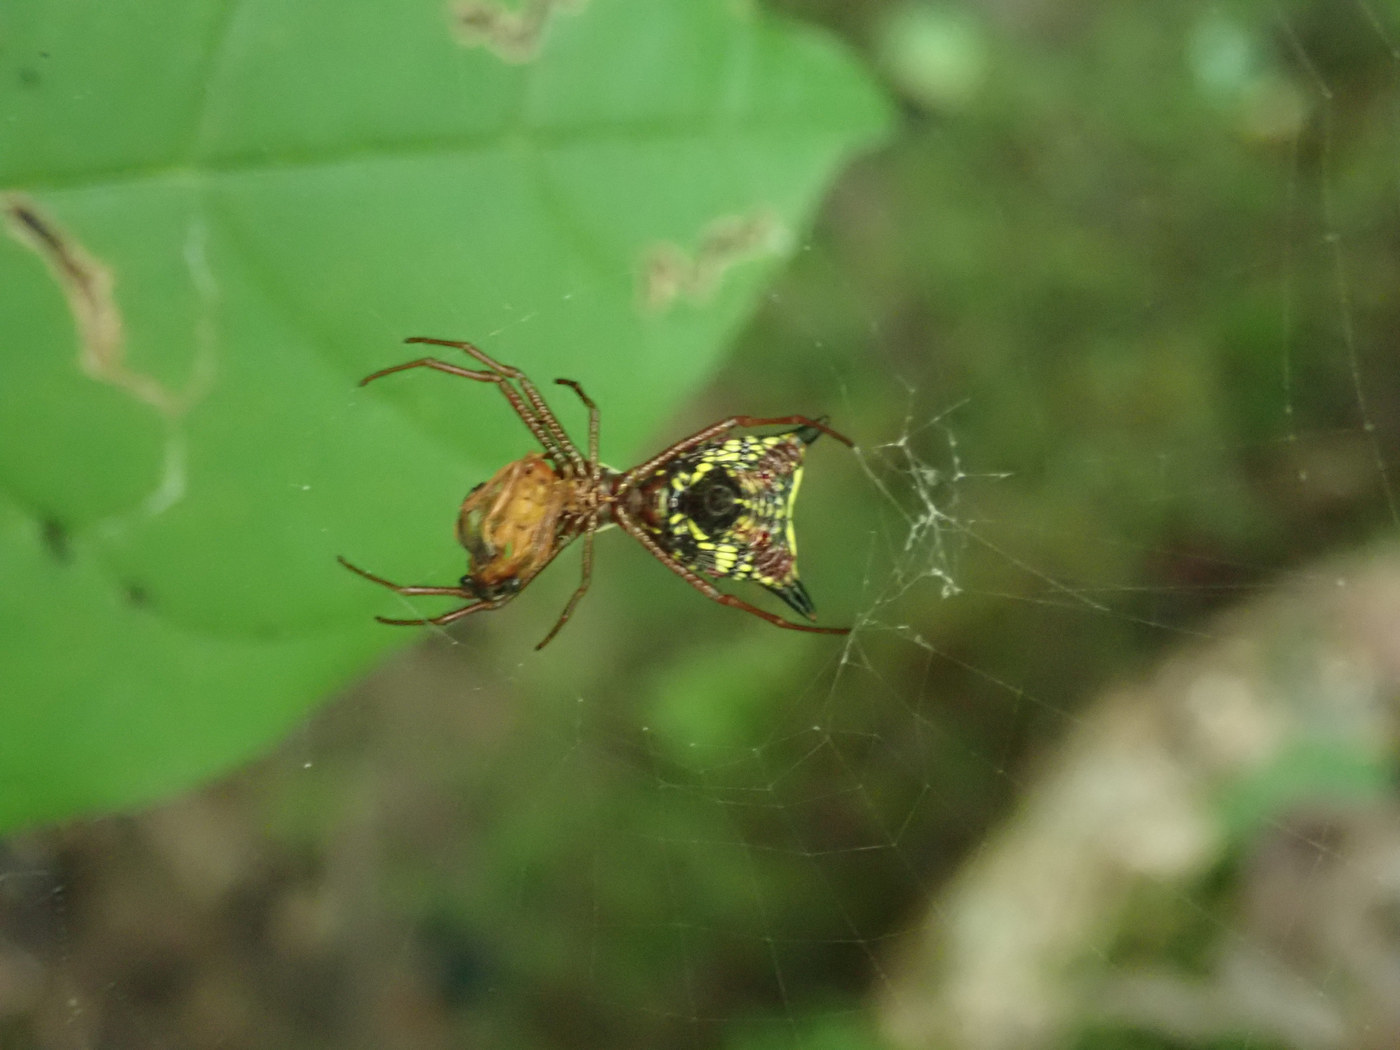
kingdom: Animalia
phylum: Arthropoda
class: Arachnida
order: Araneae
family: Araneidae
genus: Micrathena
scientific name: Micrathena sagittata
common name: Orb weavers
